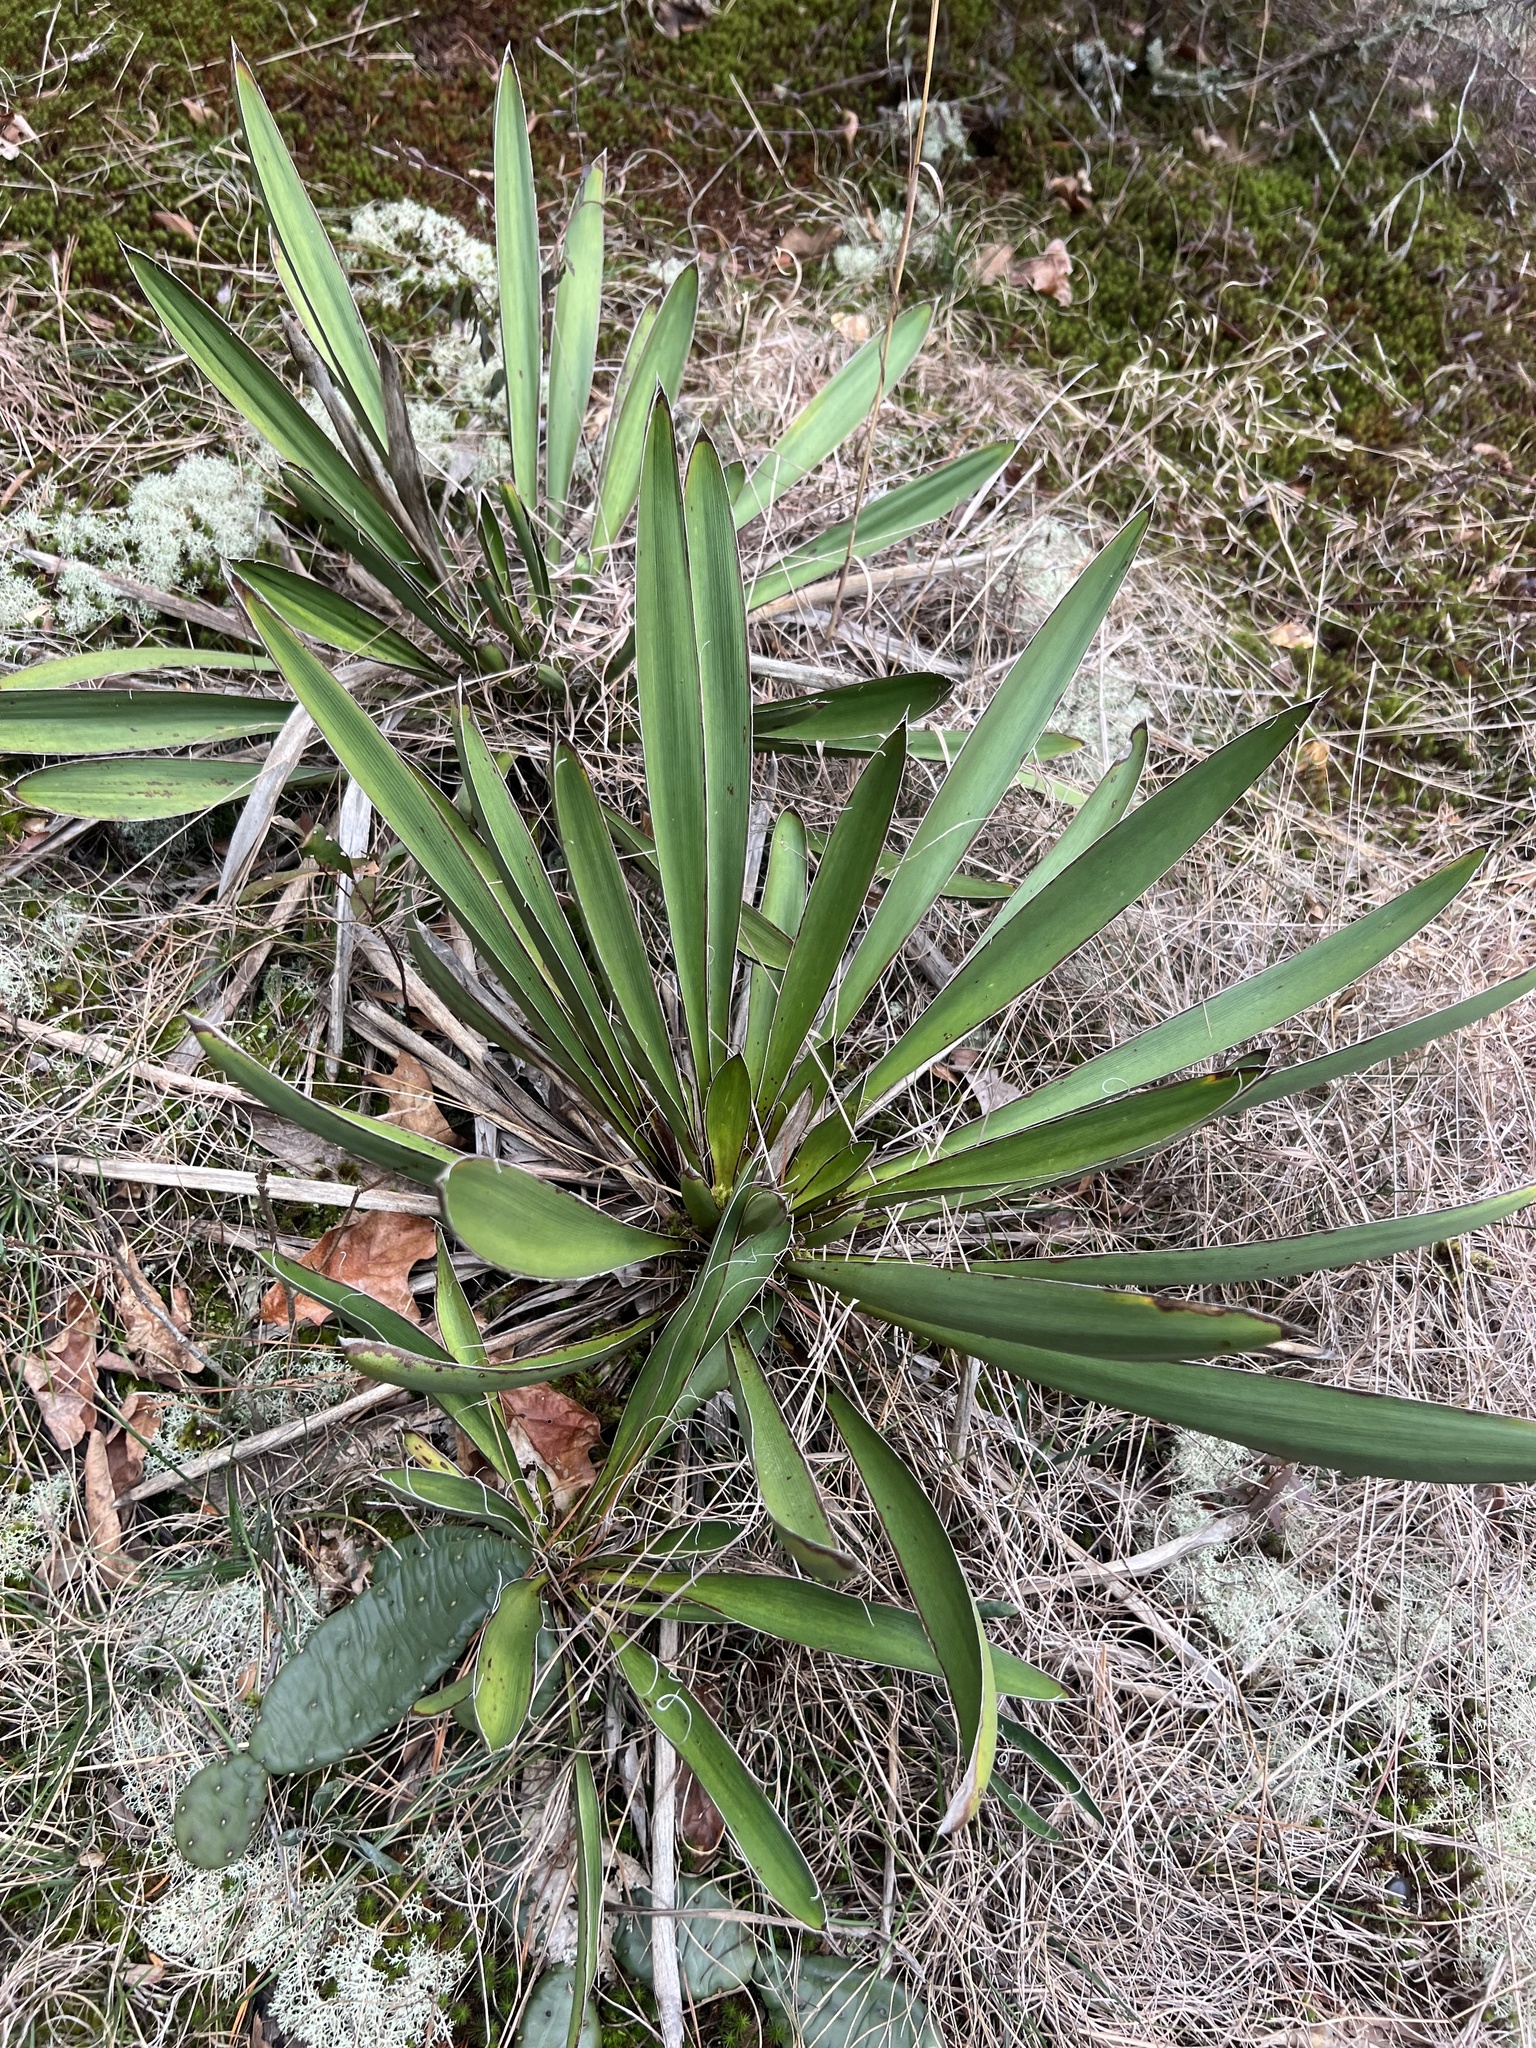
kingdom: Plantae
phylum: Tracheophyta
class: Liliopsida
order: Asparagales
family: Asparagaceae
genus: Yucca
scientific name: Yucca filamentosa
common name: Adam's-needle
